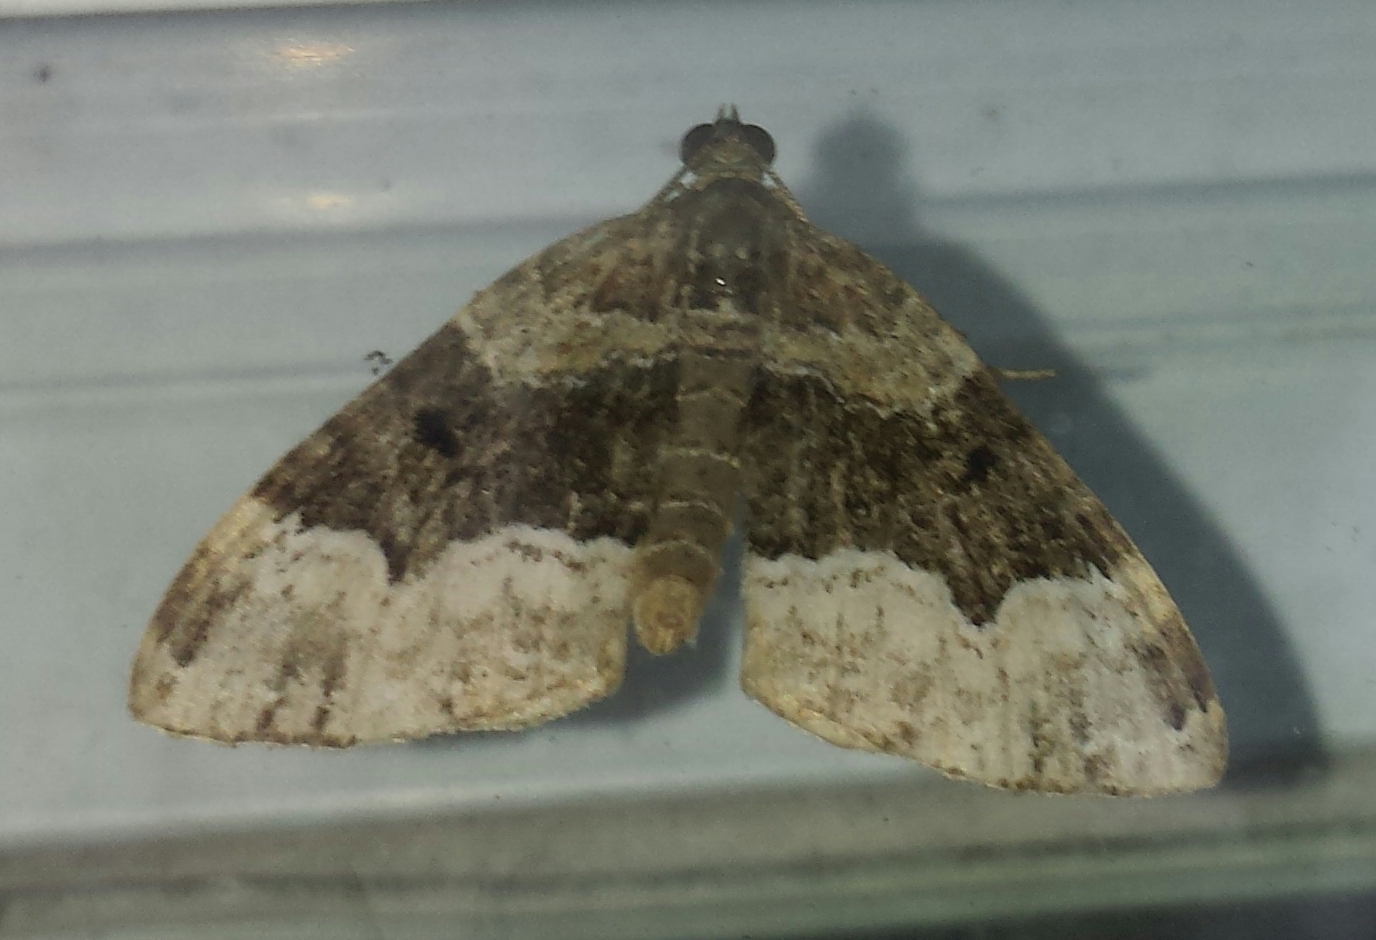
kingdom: Animalia
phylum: Arthropoda
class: Insecta
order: Lepidoptera
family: Geometridae
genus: Euphyia
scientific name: Euphyia intermediata
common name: Sharp-angled carpet
